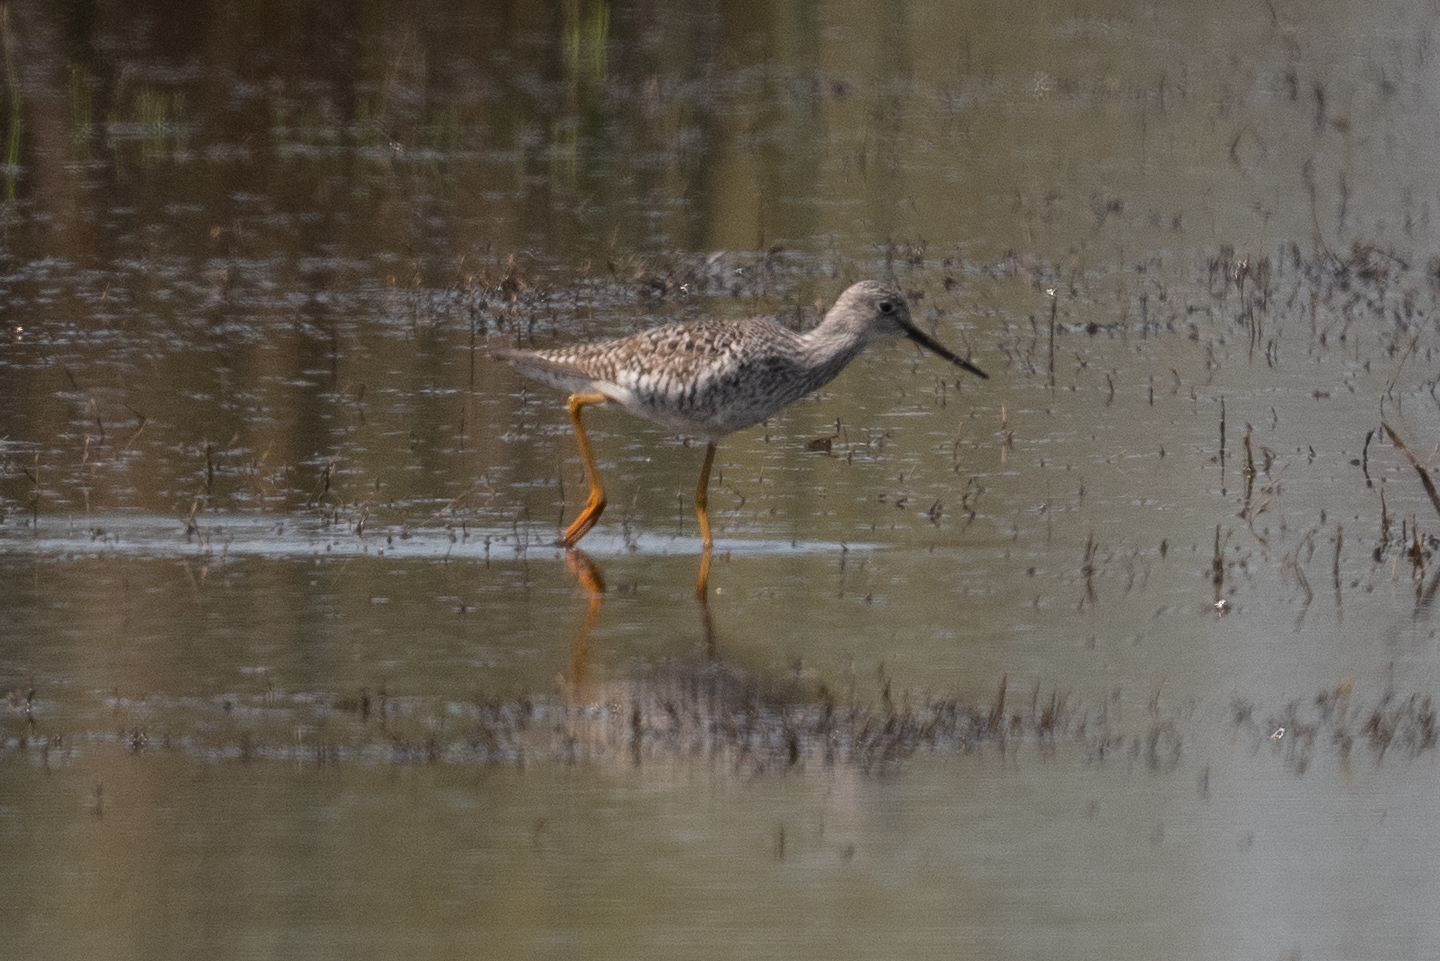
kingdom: Animalia
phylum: Chordata
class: Aves
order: Charadriiformes
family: Scolopacidae
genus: Tringa
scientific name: Tringa melanoleuca
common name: Greater yellowlegs
